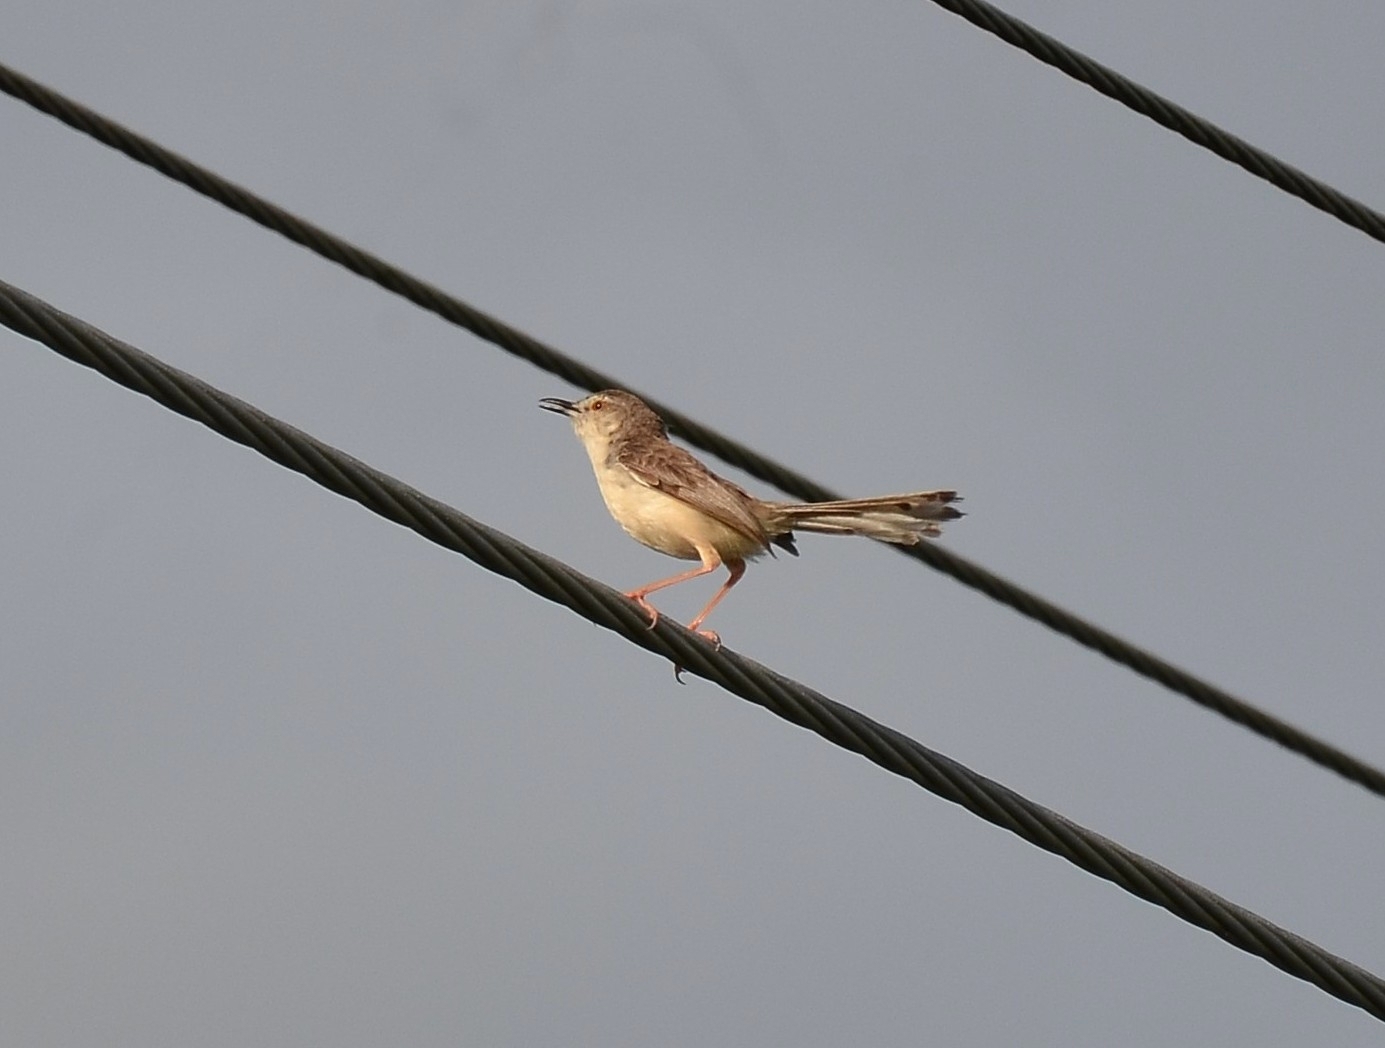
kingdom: Animalia
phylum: Chordata
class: Aves
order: Passeriformes
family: Cisticolidae
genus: Prinia
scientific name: Prinia inornata
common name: Plain prinia
